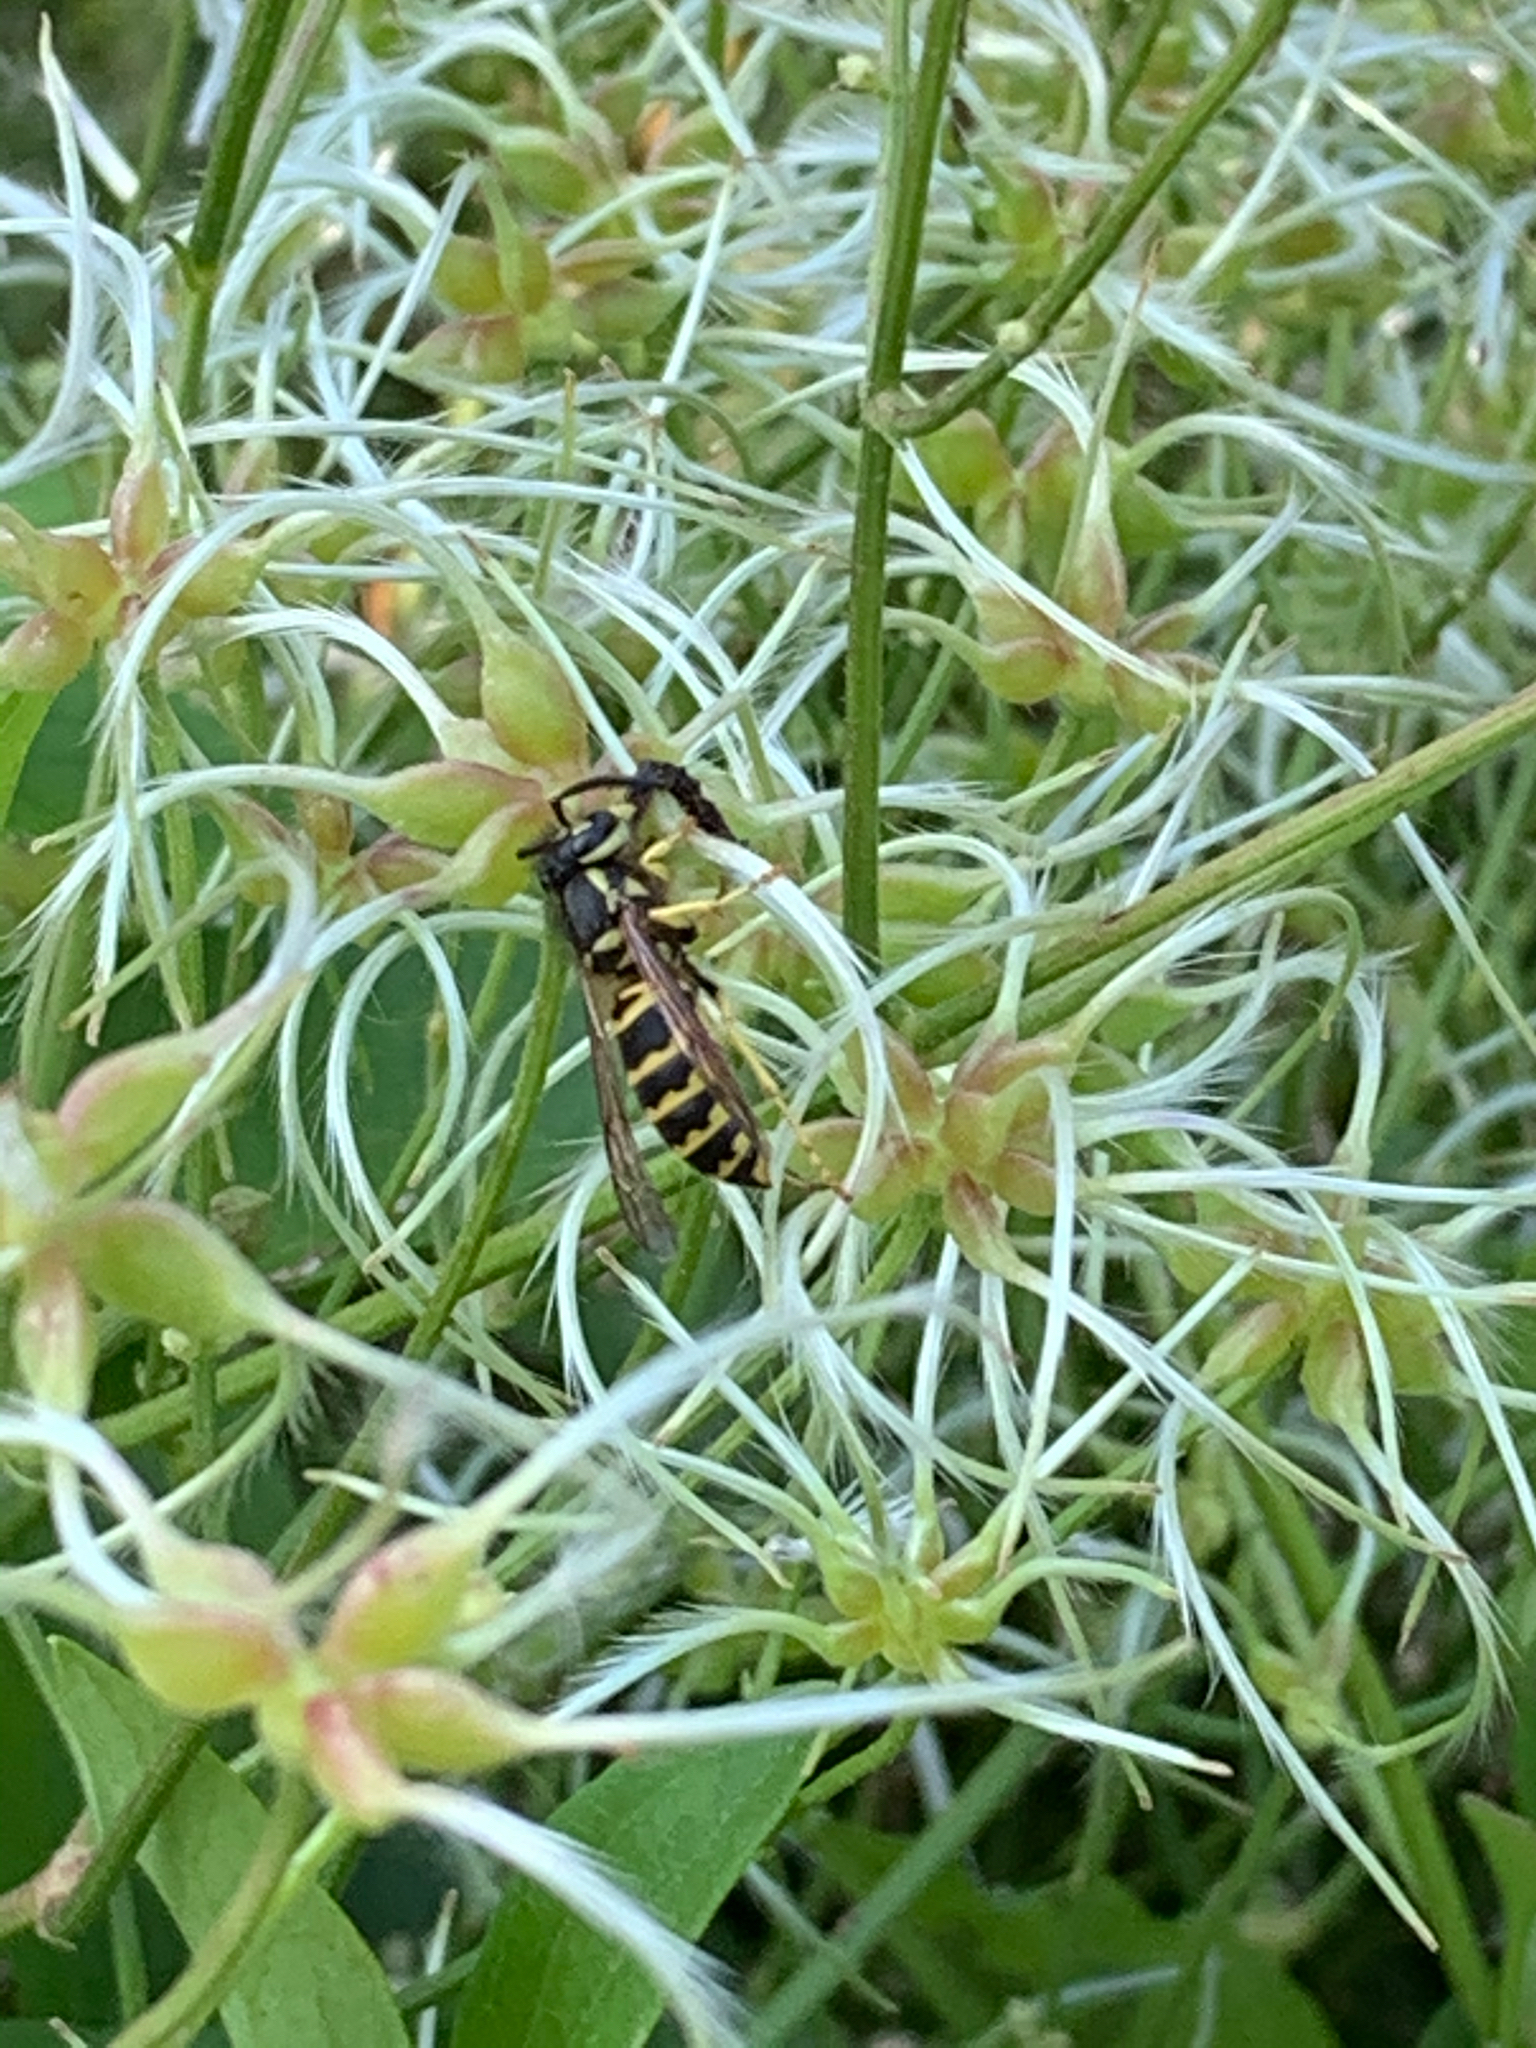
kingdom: Animalia
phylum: Arthropoda
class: Insecta
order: Hymenoptera
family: Vespidae
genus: Vespula
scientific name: Vespula maculifrons
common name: Eastern yellowjacket
